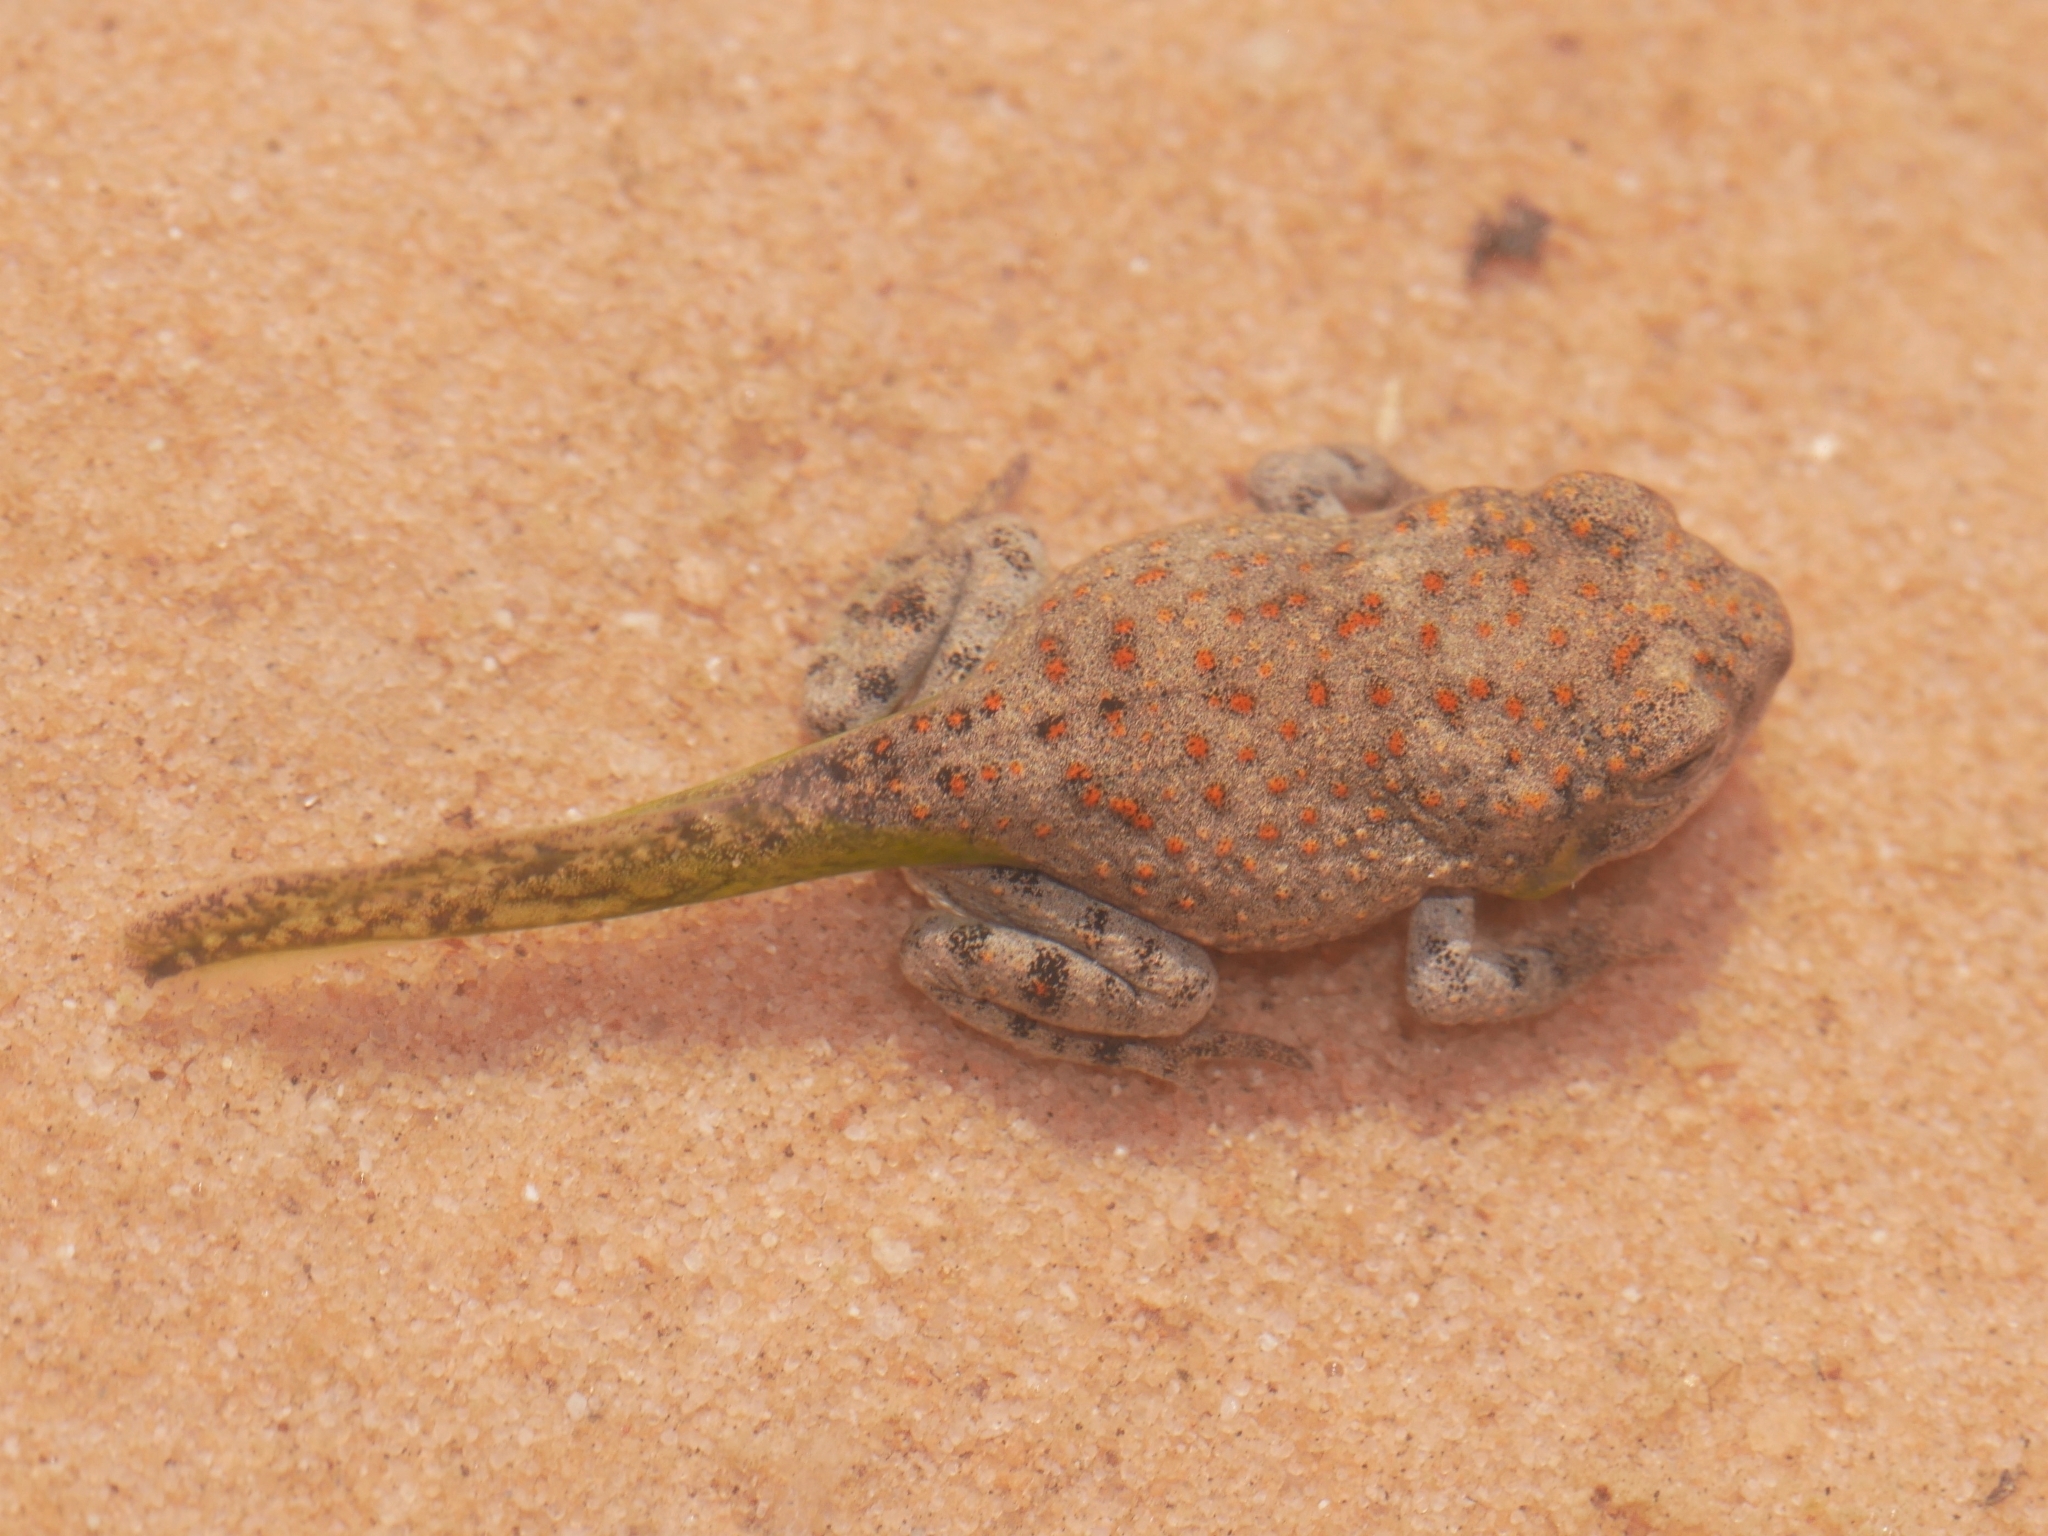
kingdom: Animalia
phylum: Chordata
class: Amphibia
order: Anura
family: Bufonidae
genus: Anaxyrus
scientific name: Anaxyrus punctatus
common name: Red-spotted toad
